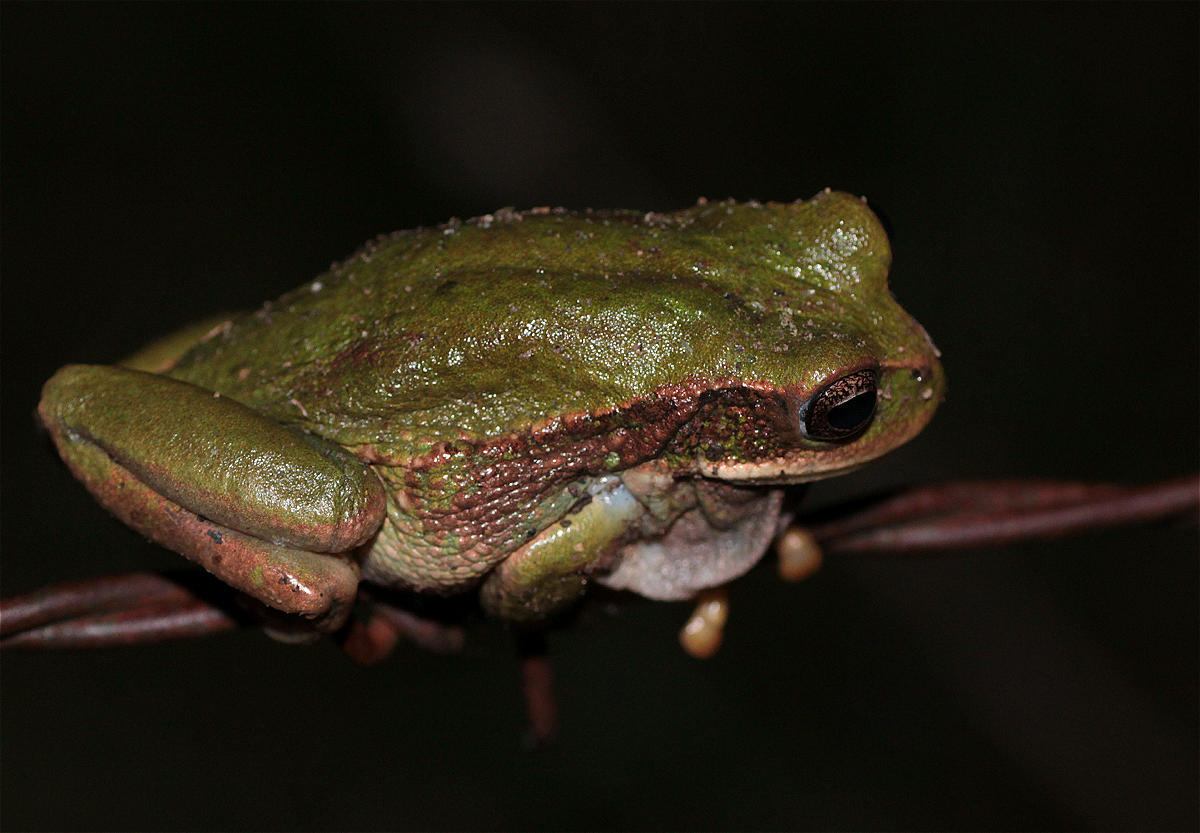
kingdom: Animalia
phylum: Chordata
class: Amphibia
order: Anura
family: Hemiphractidae
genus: Gastrotheca
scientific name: Gastrotheca cuencana
